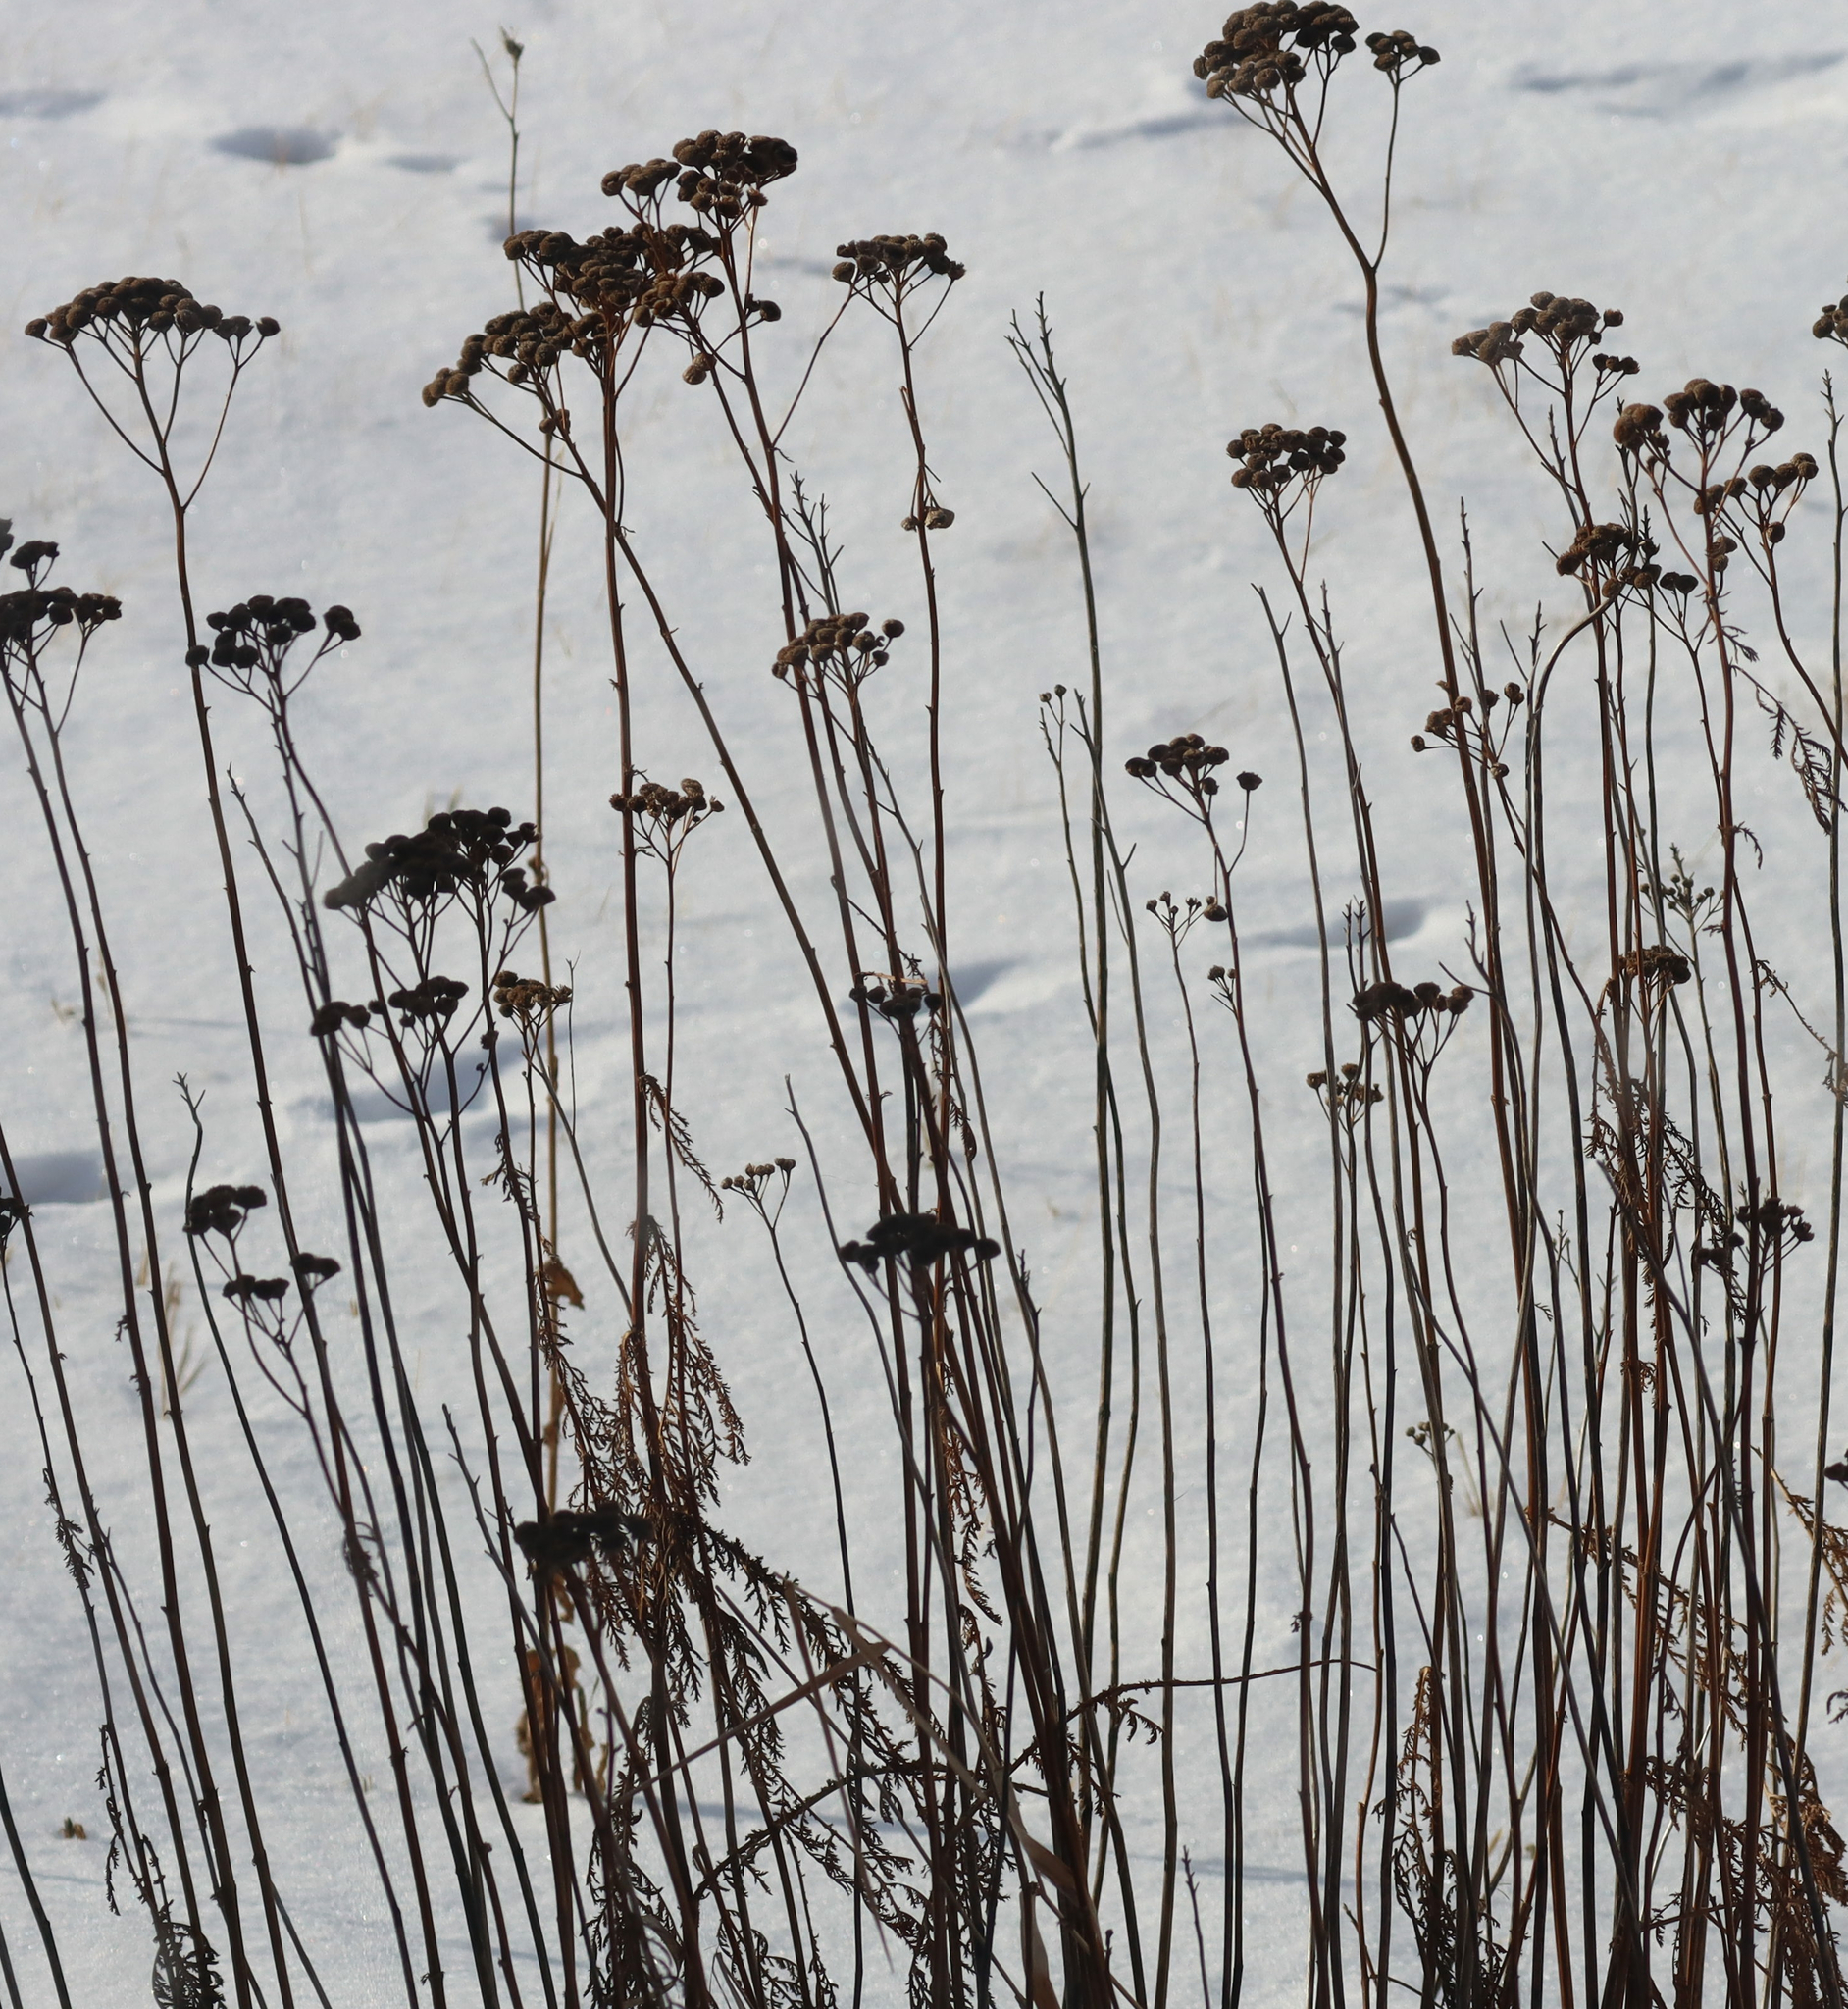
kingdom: Plantae
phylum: Tracheophyta
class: Magnoliopsida
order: Asterales
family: Asteraceae
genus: Tanacetum
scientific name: Tanacetum vulgare
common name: Common tansy
